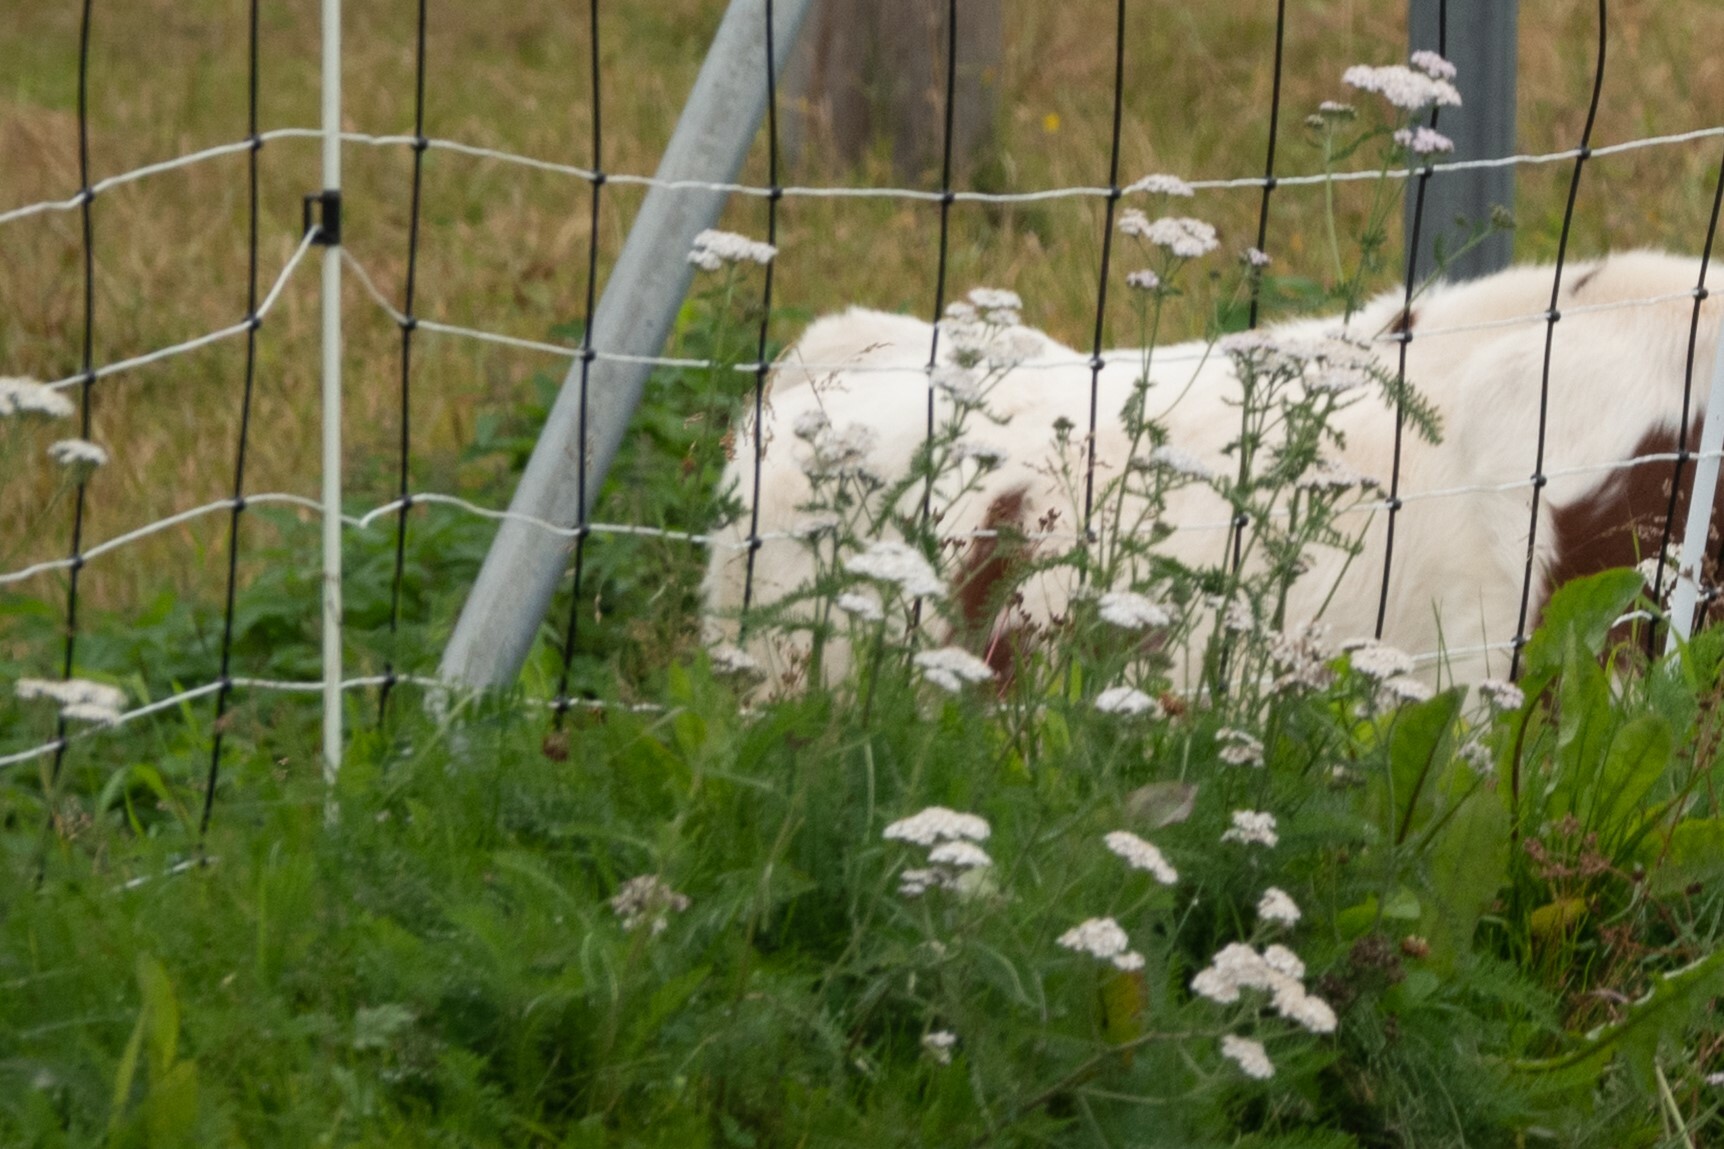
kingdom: Plantae
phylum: Tracheophyta
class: Magnoliopsida
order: Asterales
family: Asteraceae
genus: Achillea
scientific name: Achillea millefolium
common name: Yarrow
